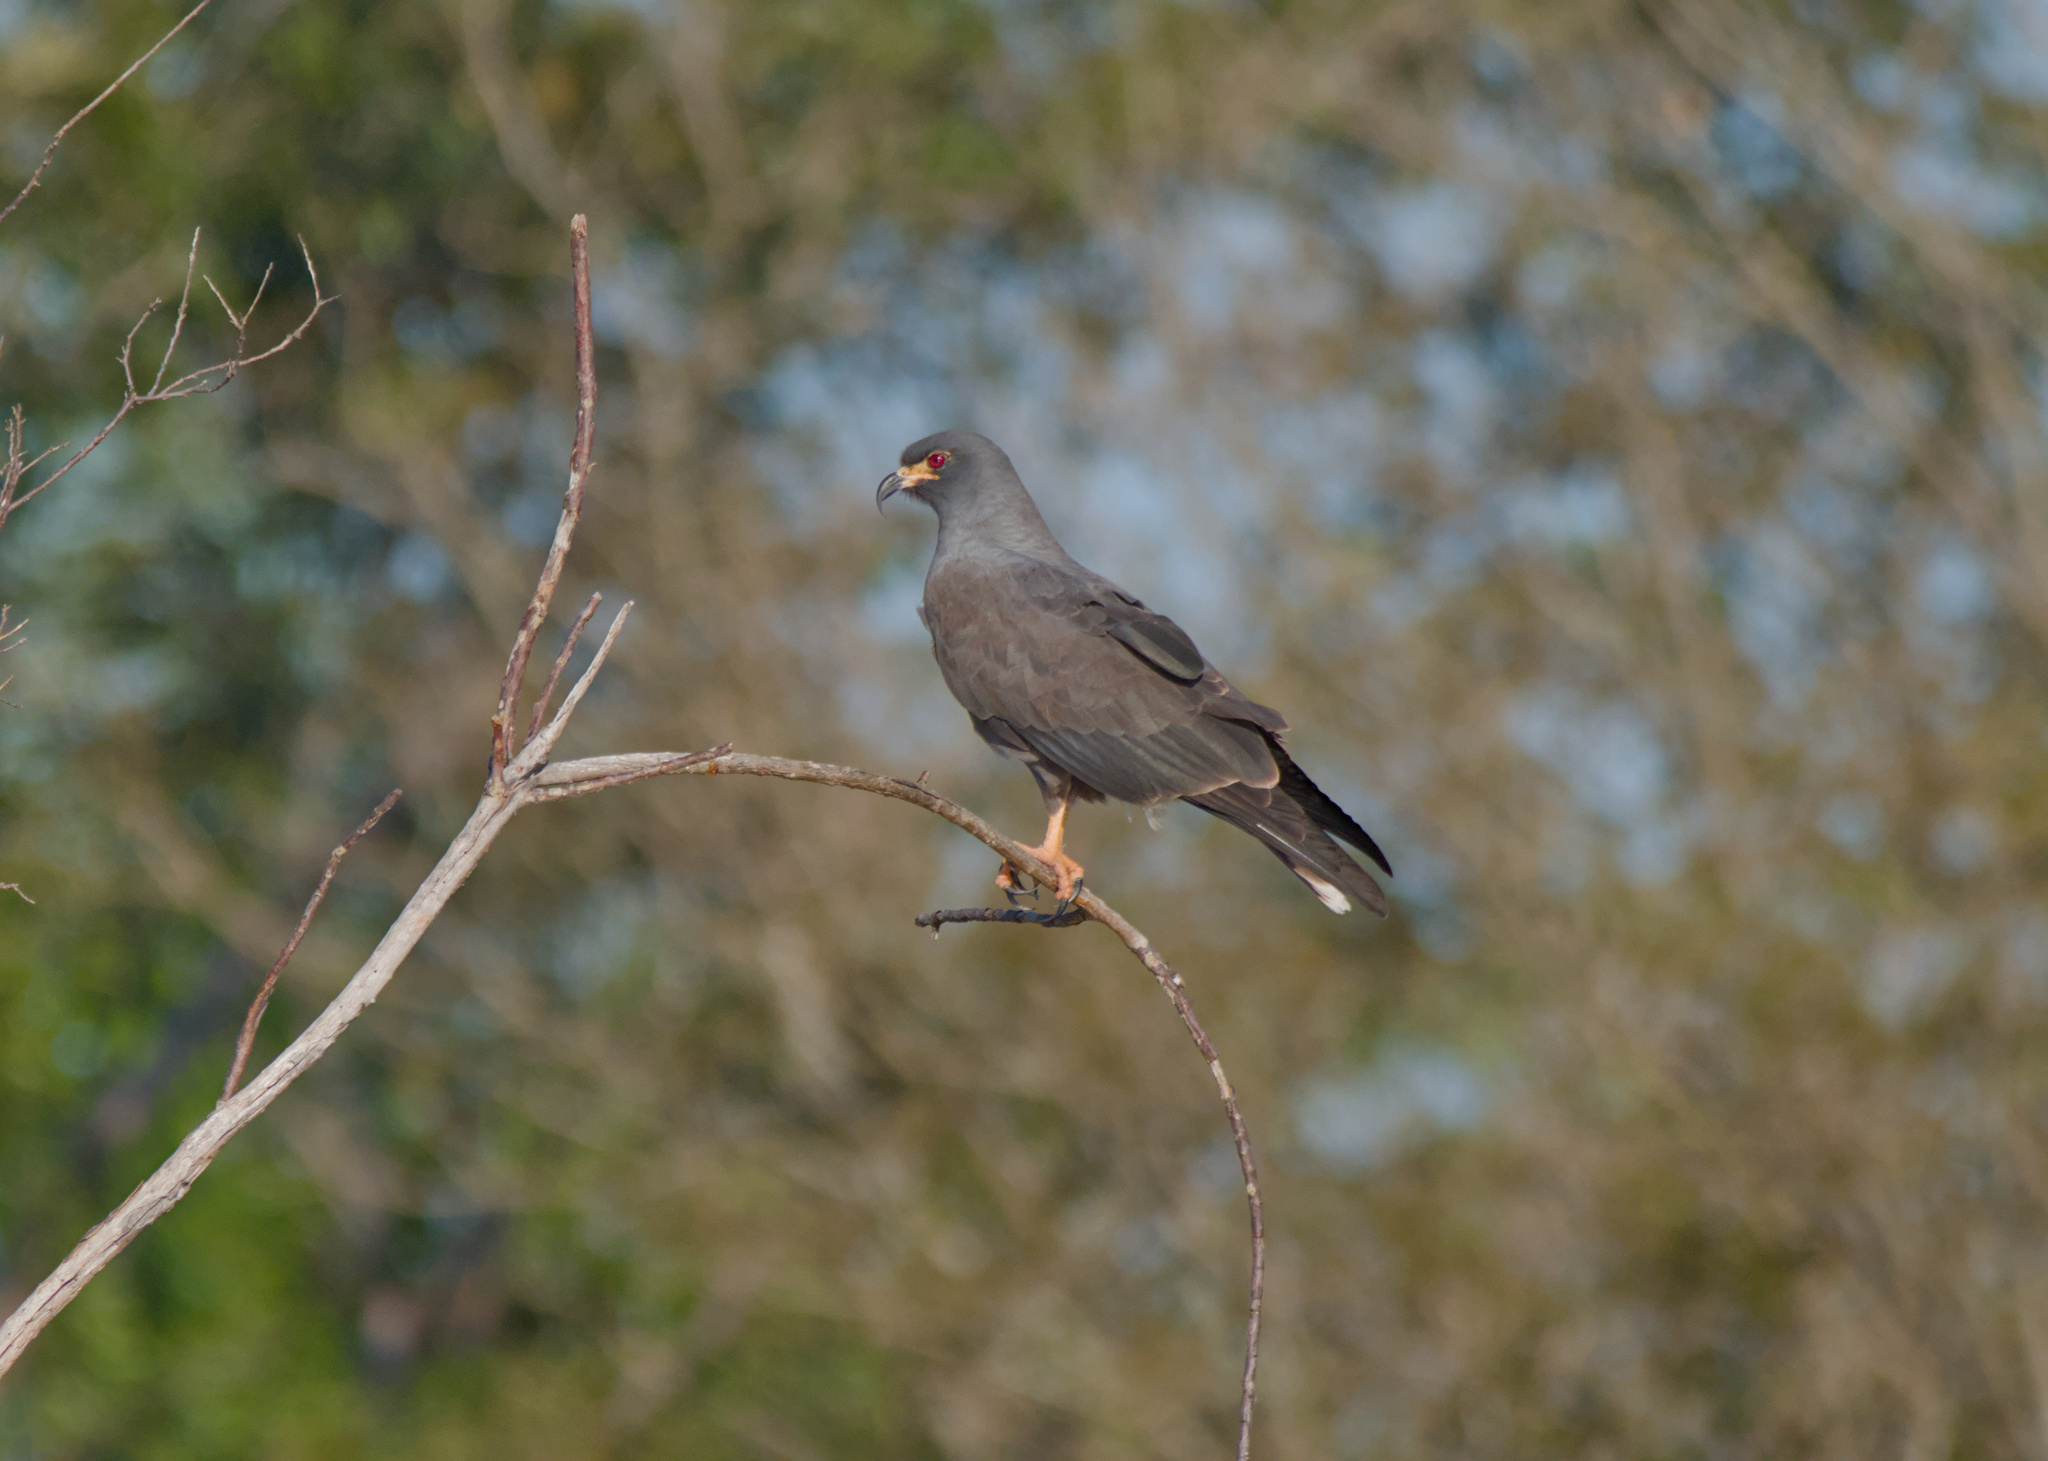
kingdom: Animalia
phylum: Chordata
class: Aves
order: Accipitriformes
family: Accipitridae
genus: Rostrhamus
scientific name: Rostrhamus sociabilis
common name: Snail kite
